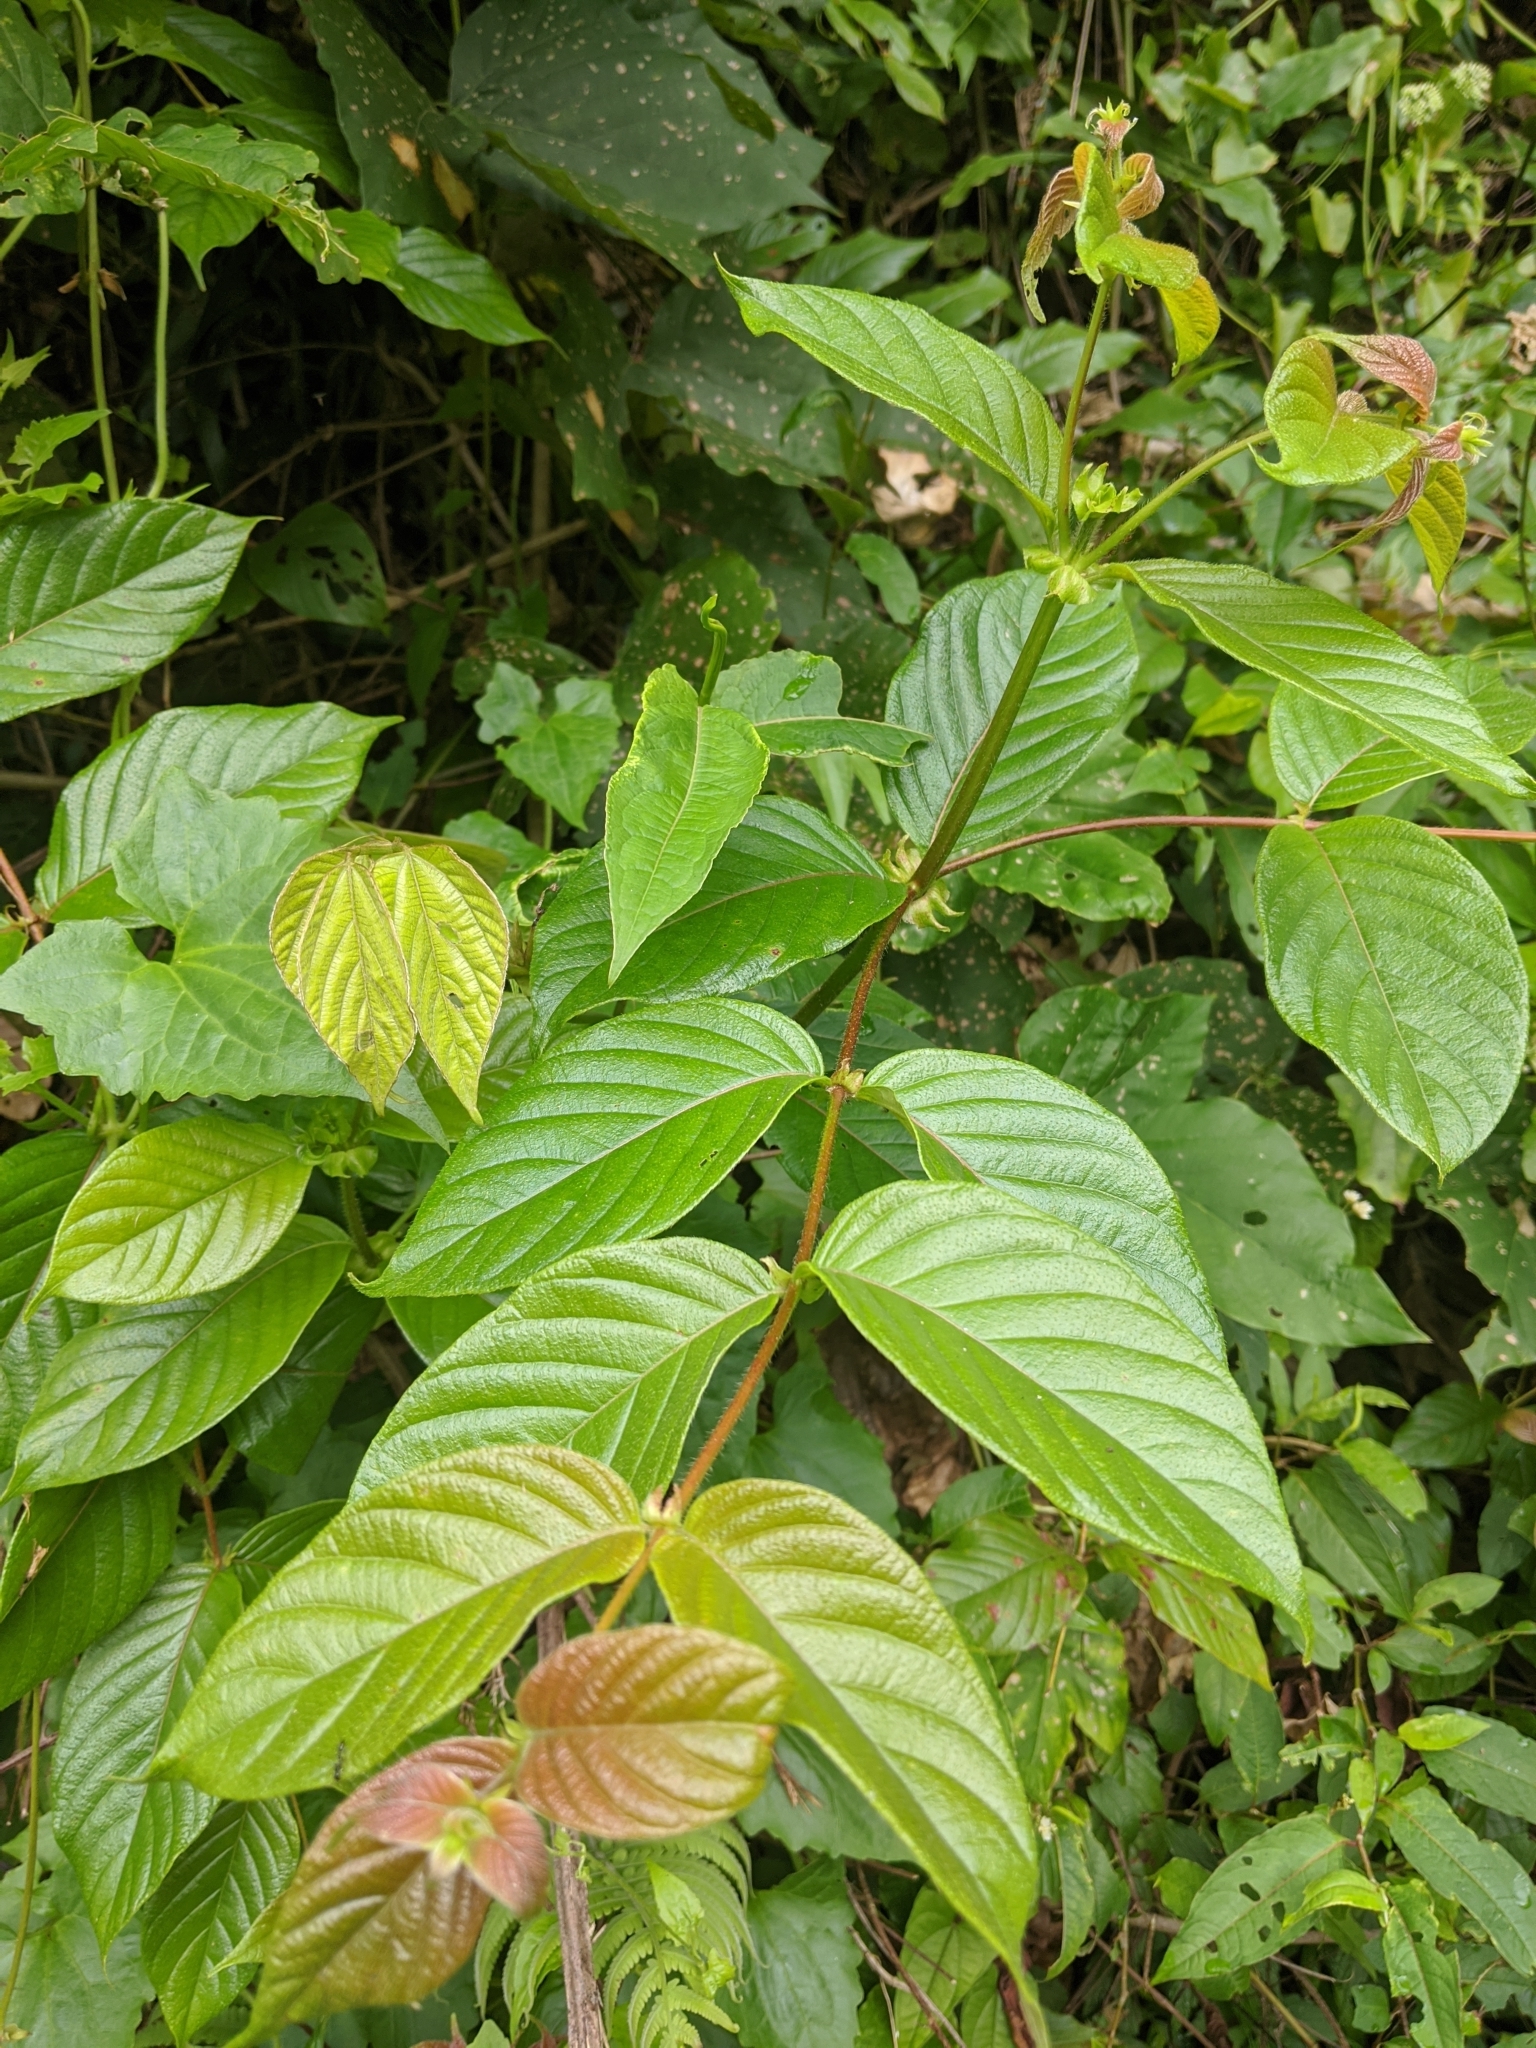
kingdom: Plantae
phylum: Tracheophyta
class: Magnoliopsida
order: Gentianales
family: Rubiaceae
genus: Uncaria
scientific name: Uncaria hirsuta
